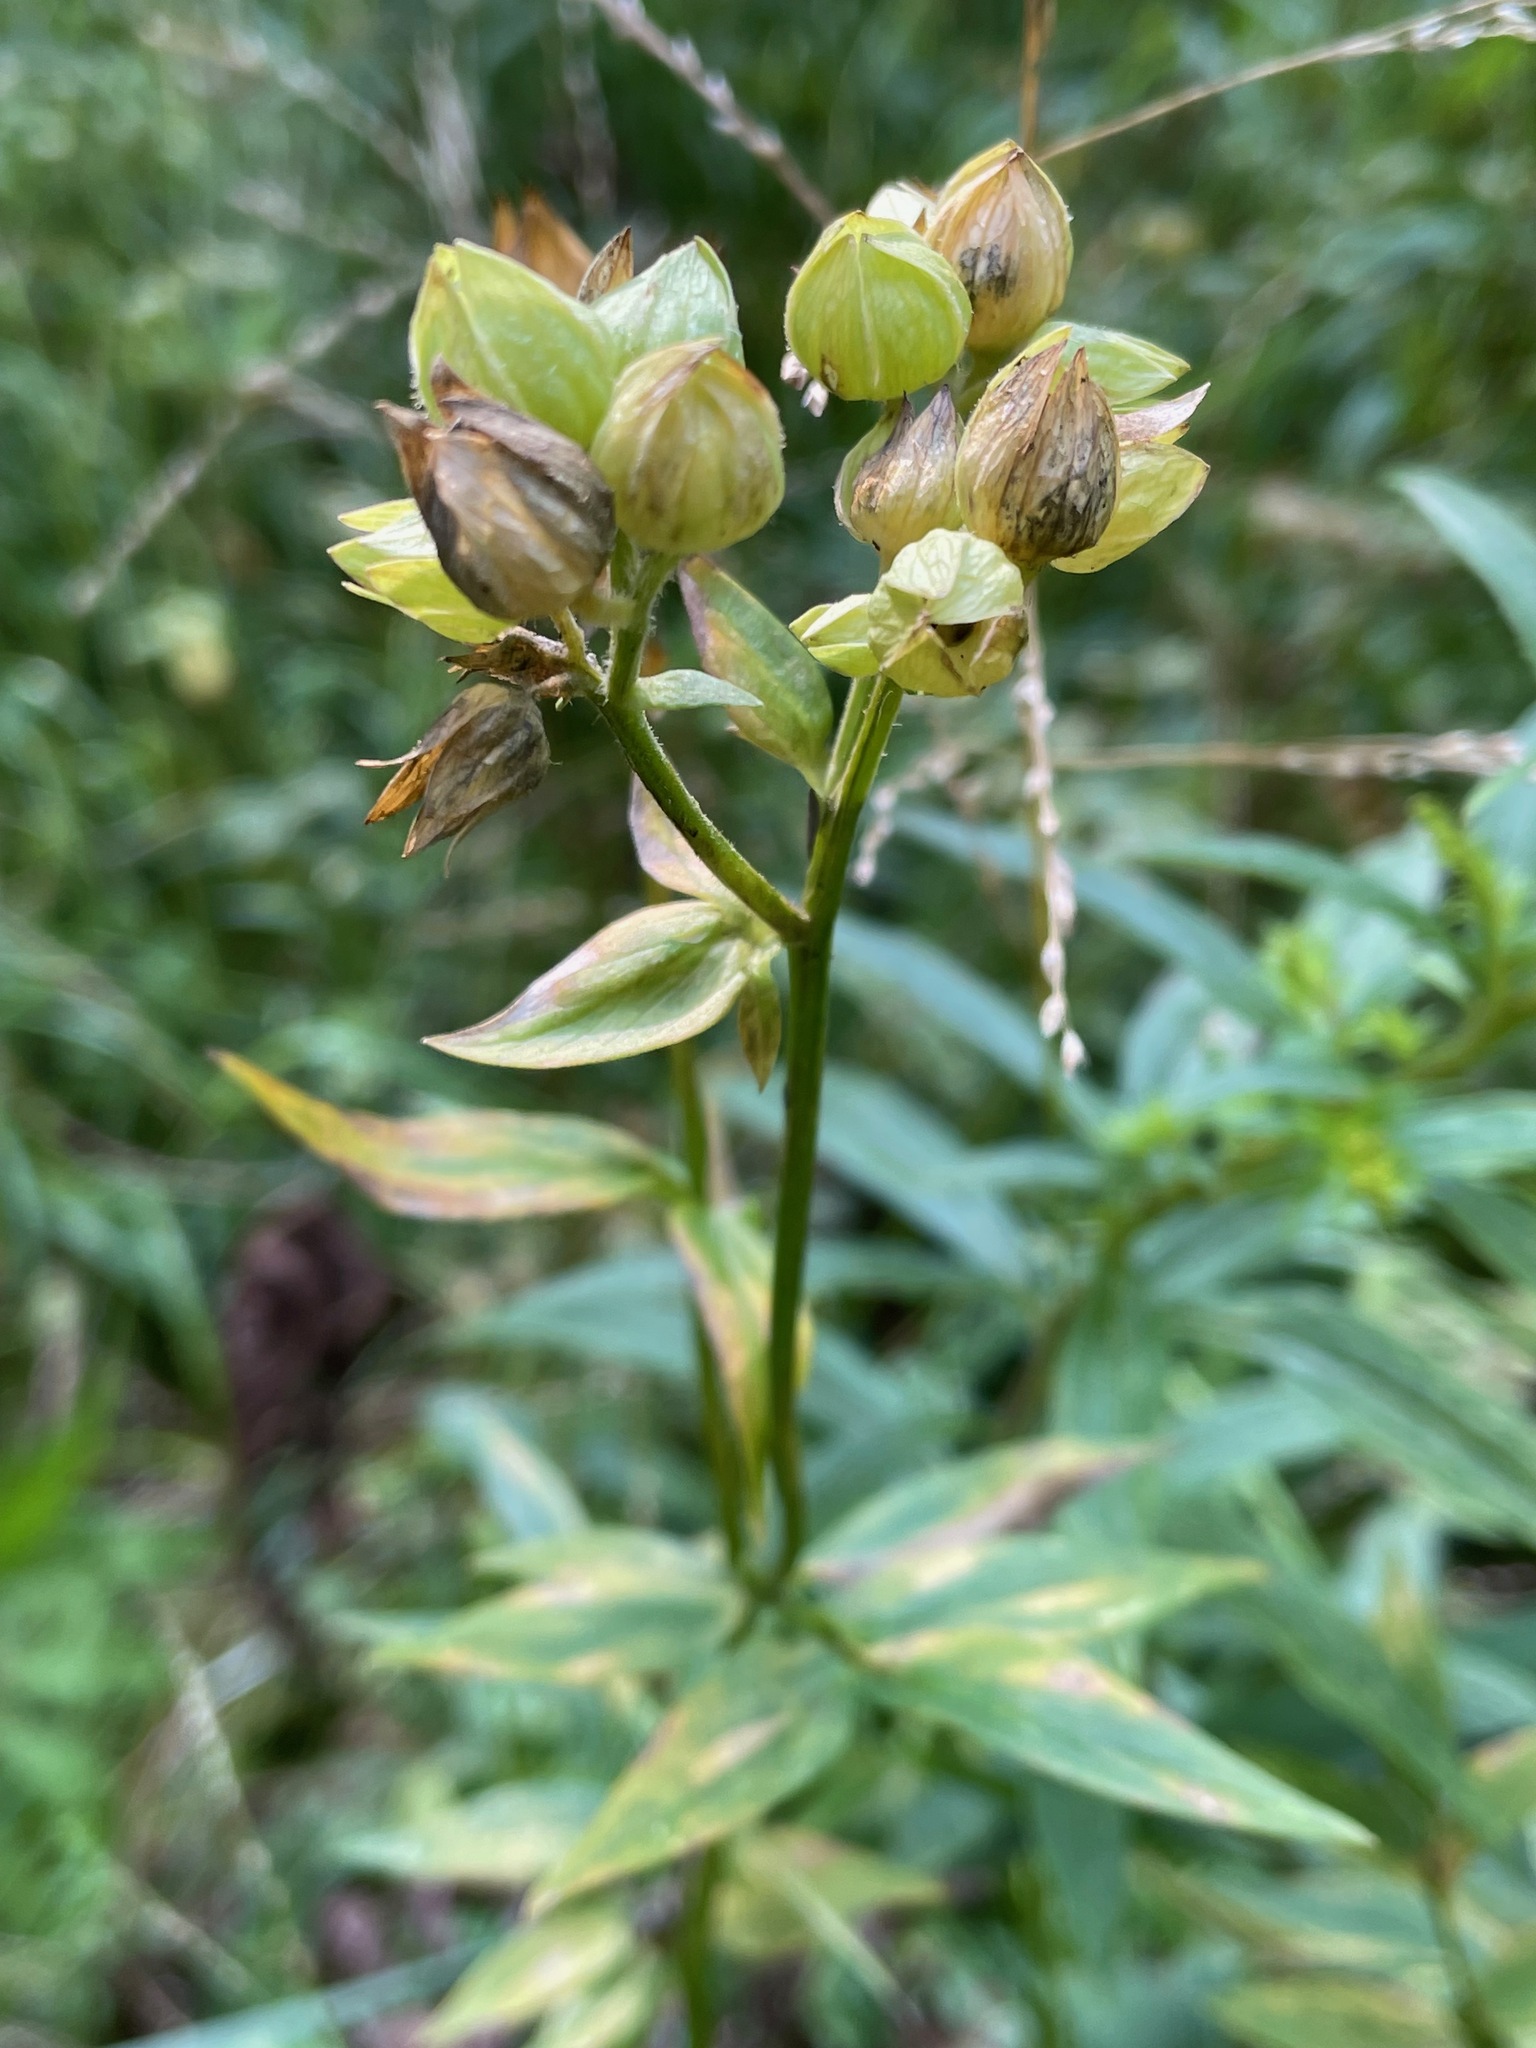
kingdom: Plantae
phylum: Tracheophyta
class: Magnoliopsida
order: Ericales
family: Polemoniaceae
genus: Polemonium
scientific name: Polemonium vanbruntiae
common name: Bog jacob's-ladder
